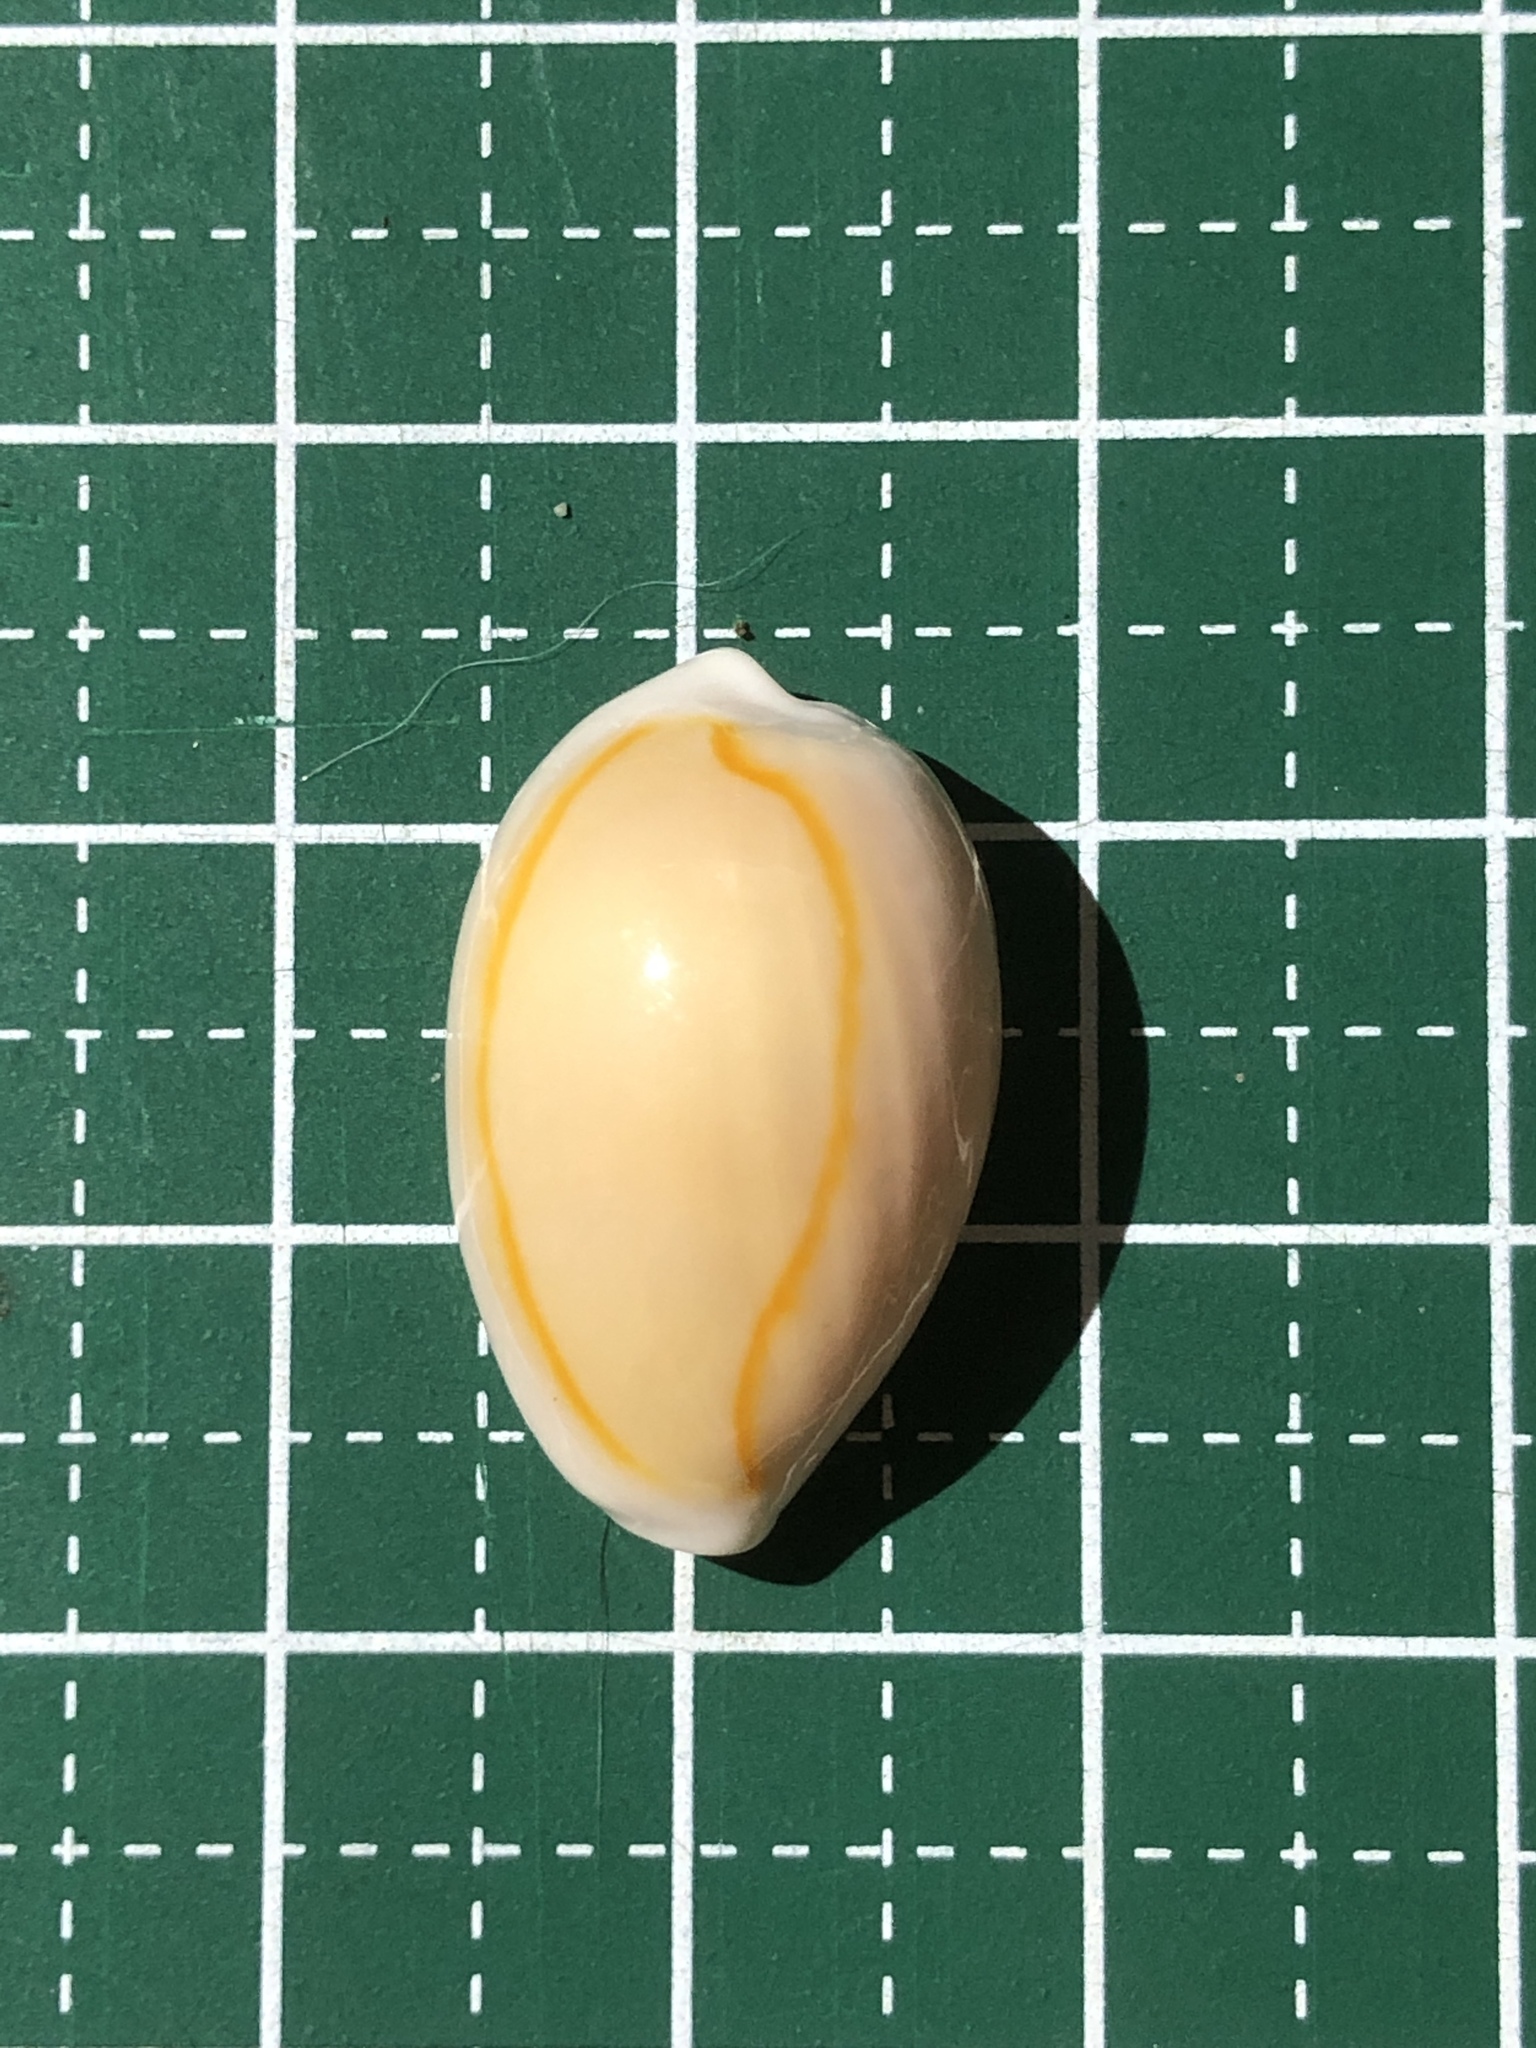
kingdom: Animalia
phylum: Mollusca
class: Gastropoda
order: Littorinimorpha
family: Cypraeidae
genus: Monetaria
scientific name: Monetaria annulus
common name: Ring cowrie
